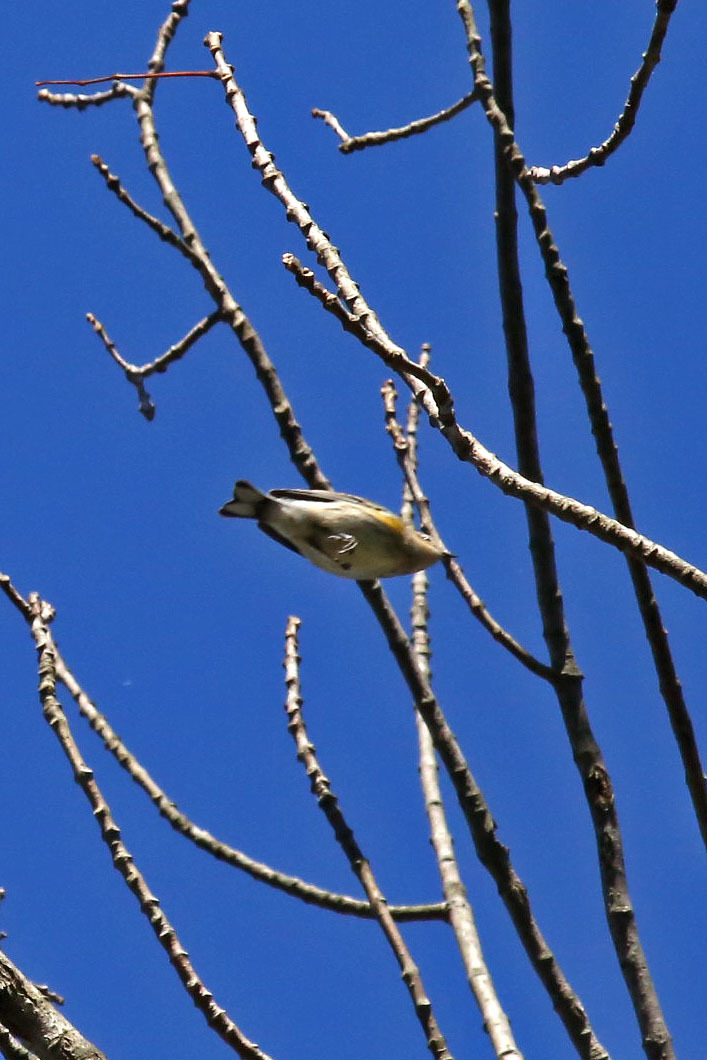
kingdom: Animalia
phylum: Chordata
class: Aves
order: Passeriformes
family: Parulidae
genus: Setophaga
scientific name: Setophaga coronata
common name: Myrtle warbler
